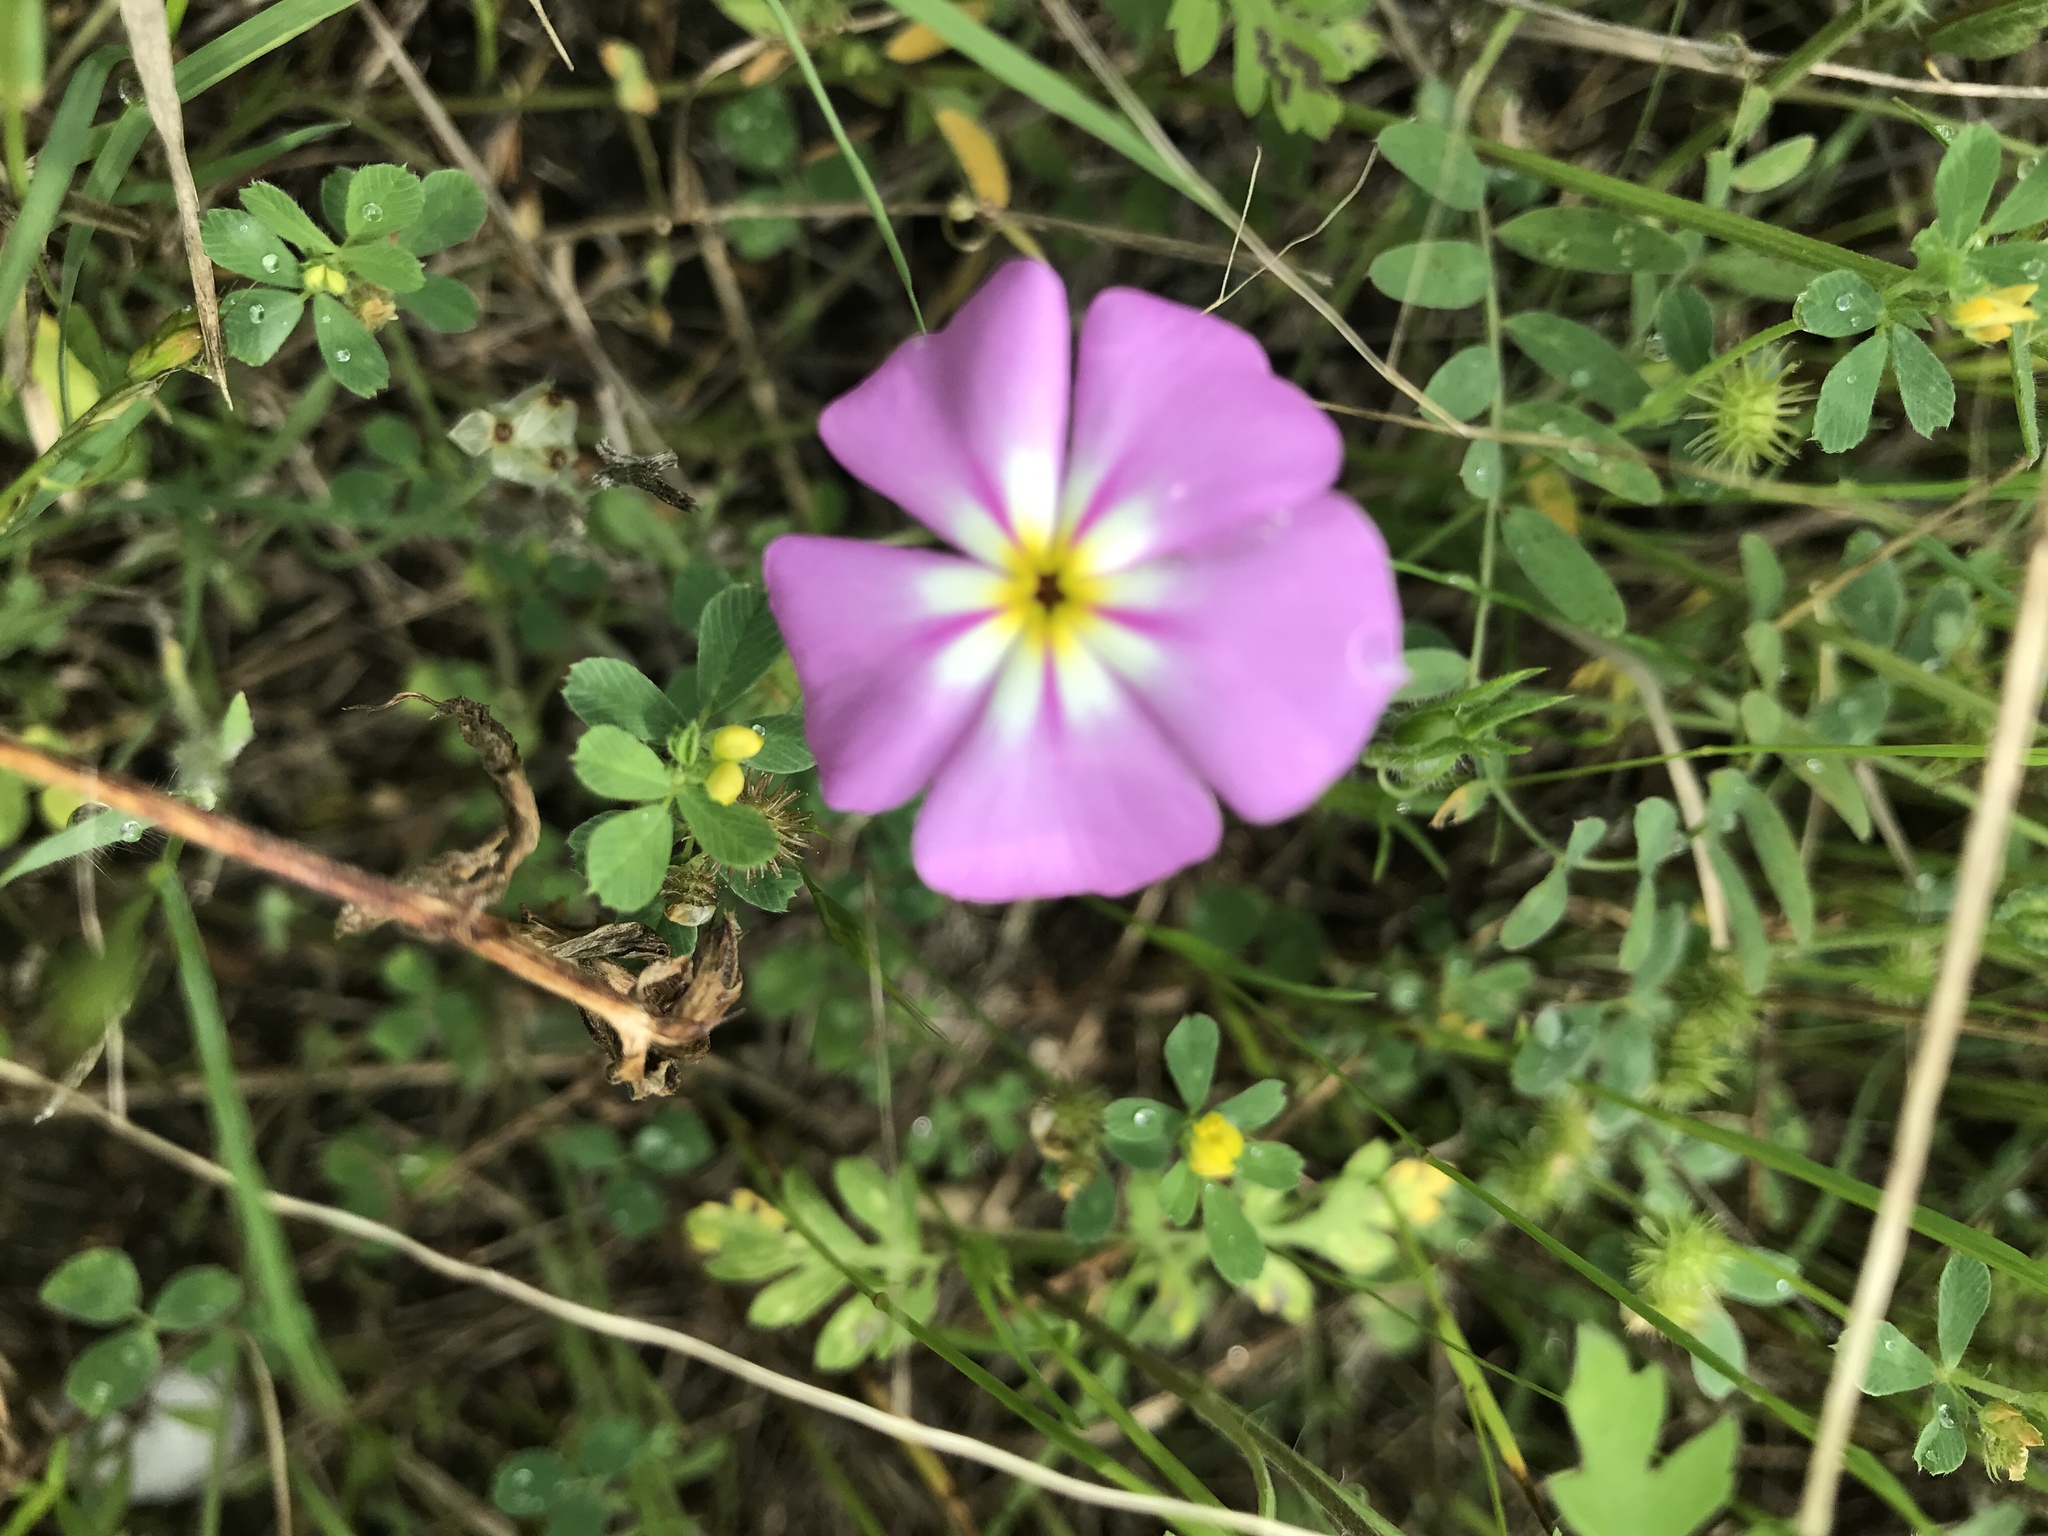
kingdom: Plantae
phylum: Tracheophyta
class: Magnoliopsida
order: Ericales
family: Polemoniaceae
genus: Phlox
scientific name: Phlox roemeriana
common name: Roemer's phlox
